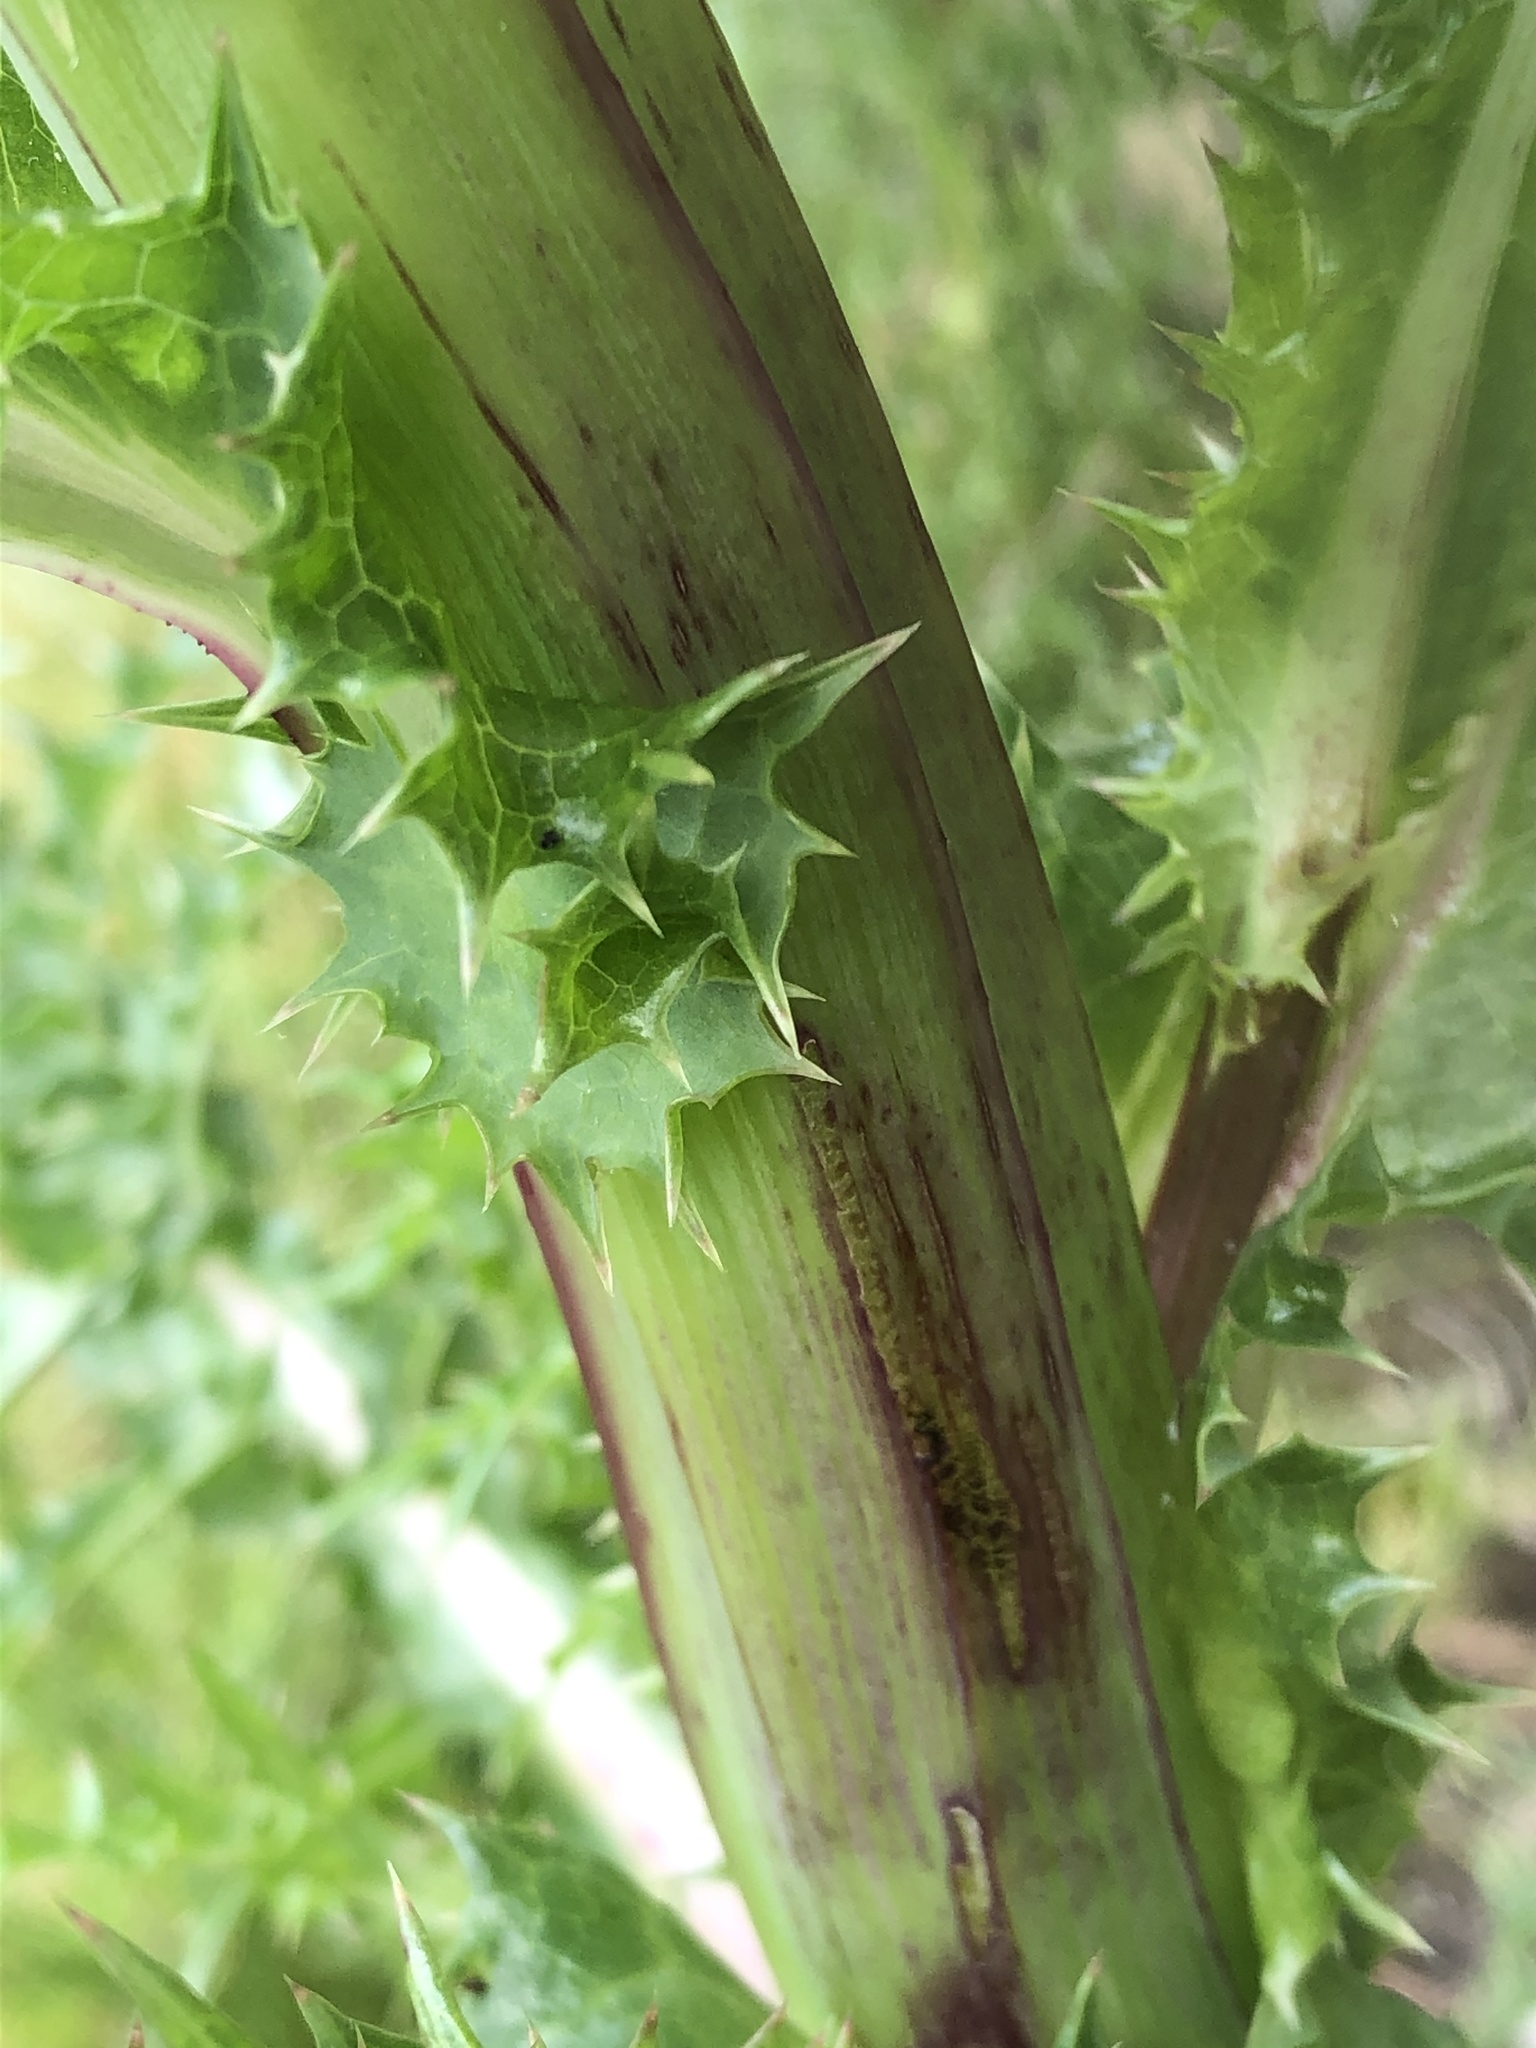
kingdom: Plantae
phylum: Tracheophyta
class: Magnoliopsida
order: Asterales
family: Asteraceae
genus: Sonchus
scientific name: Sonchus asper
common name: Prickly sow-thistle
